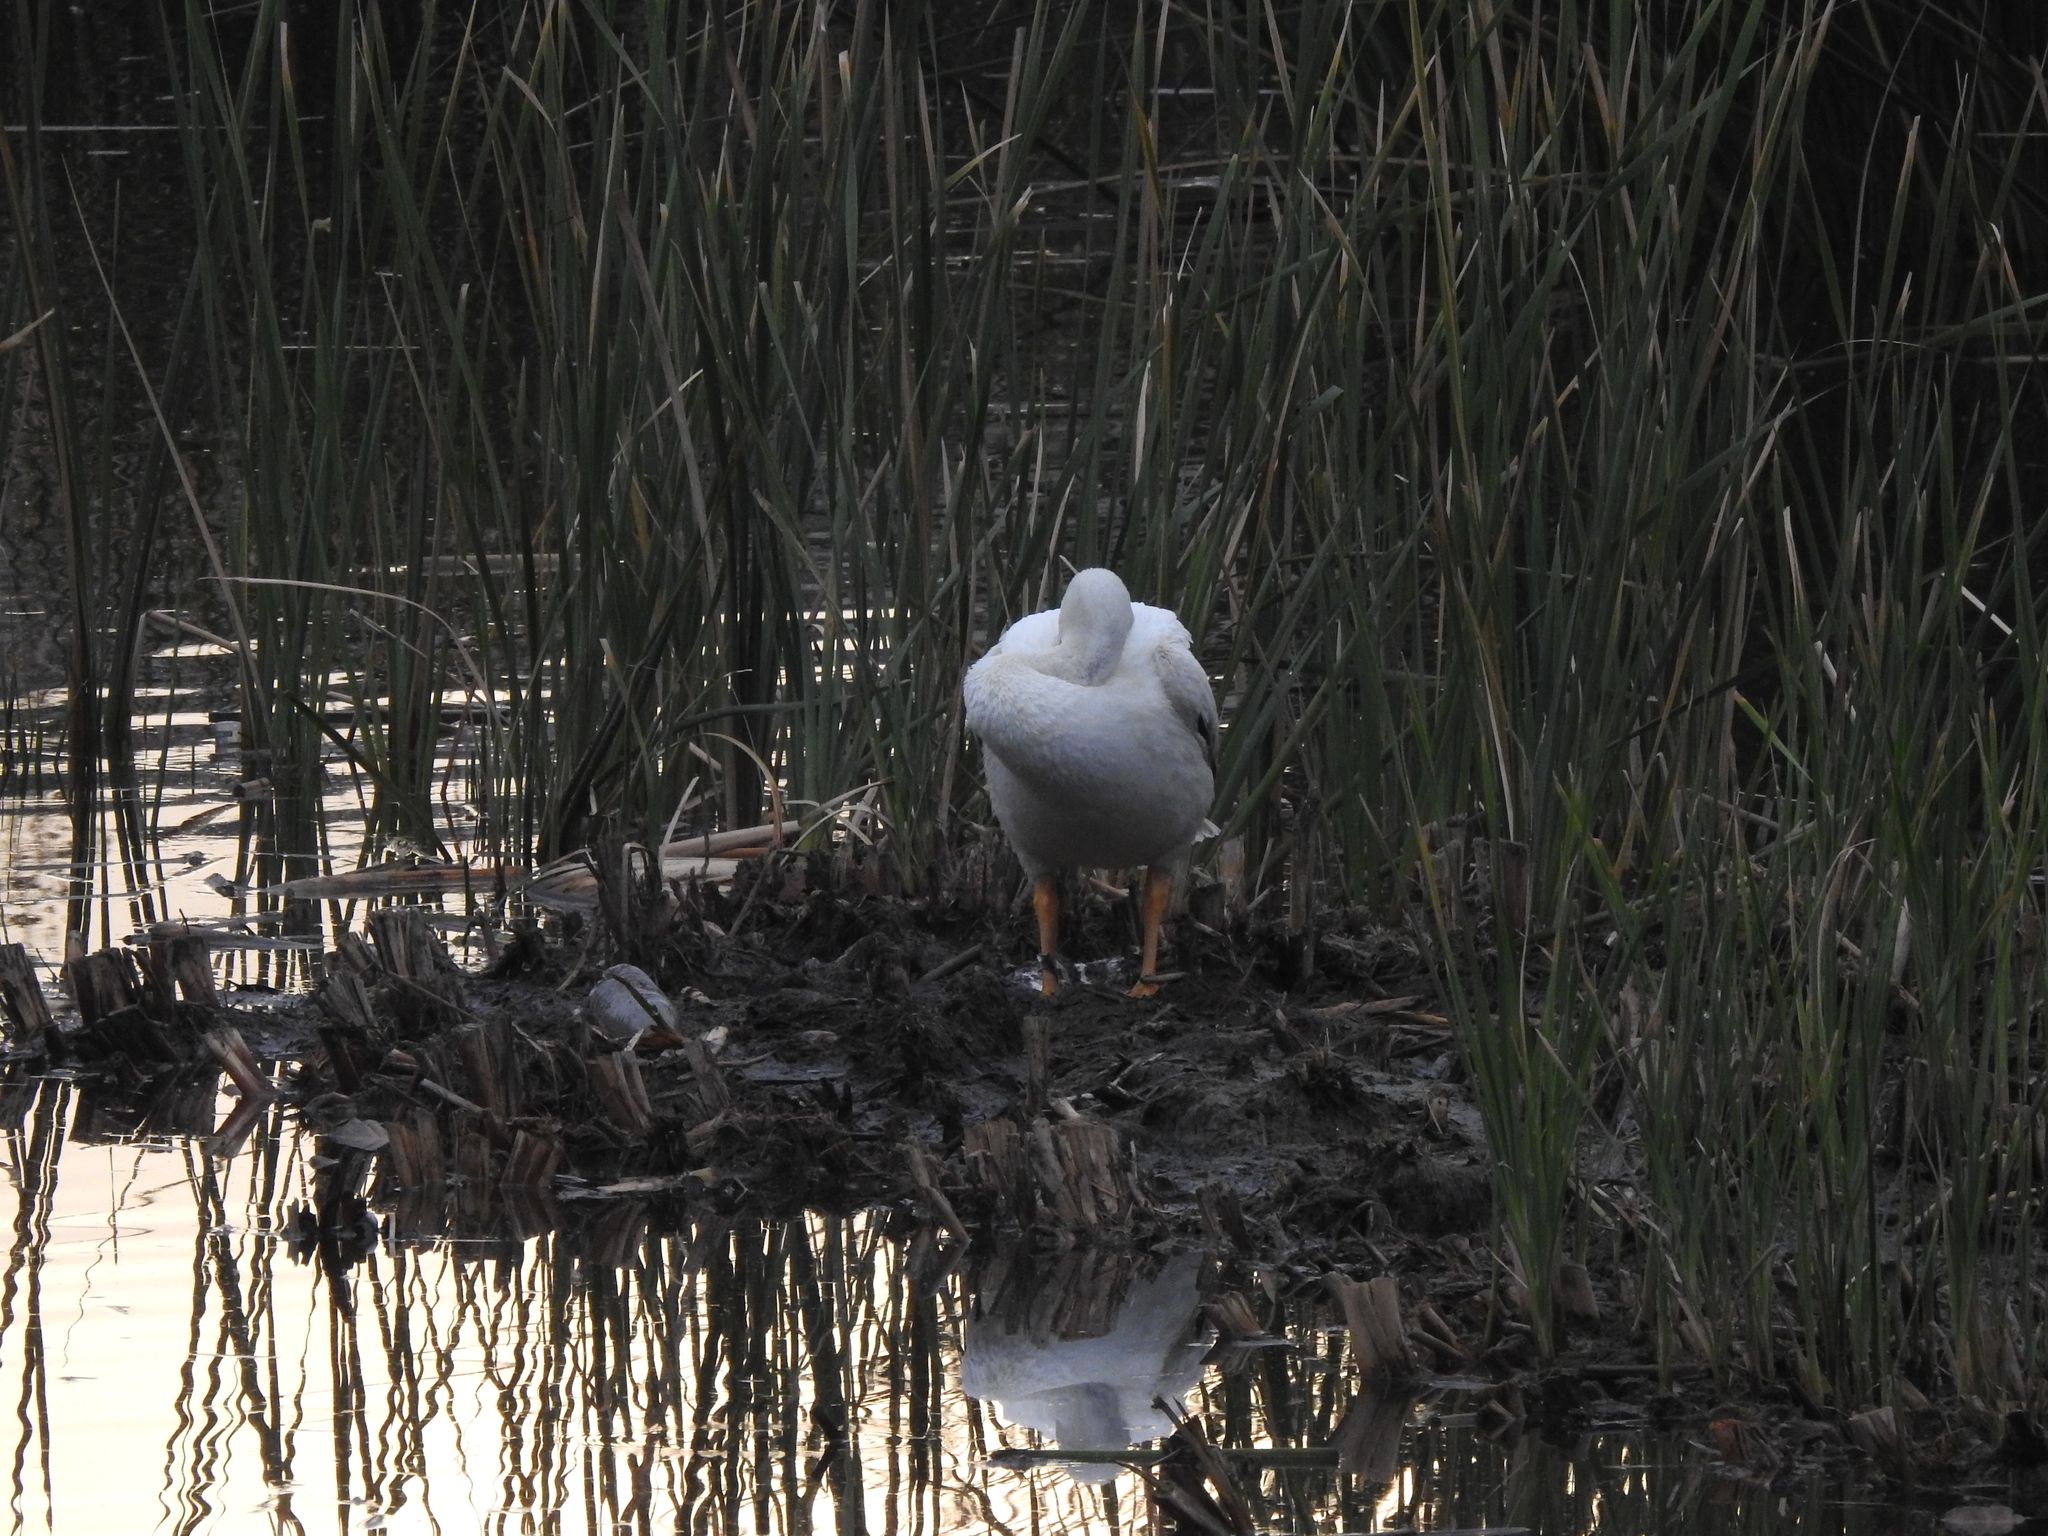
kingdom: Animalia
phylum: Chordata
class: Aves
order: Pelecaniformes
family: Pelecanidae
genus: Pelecanus
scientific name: Pelecanus erythrorhynchos
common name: American white pelican
